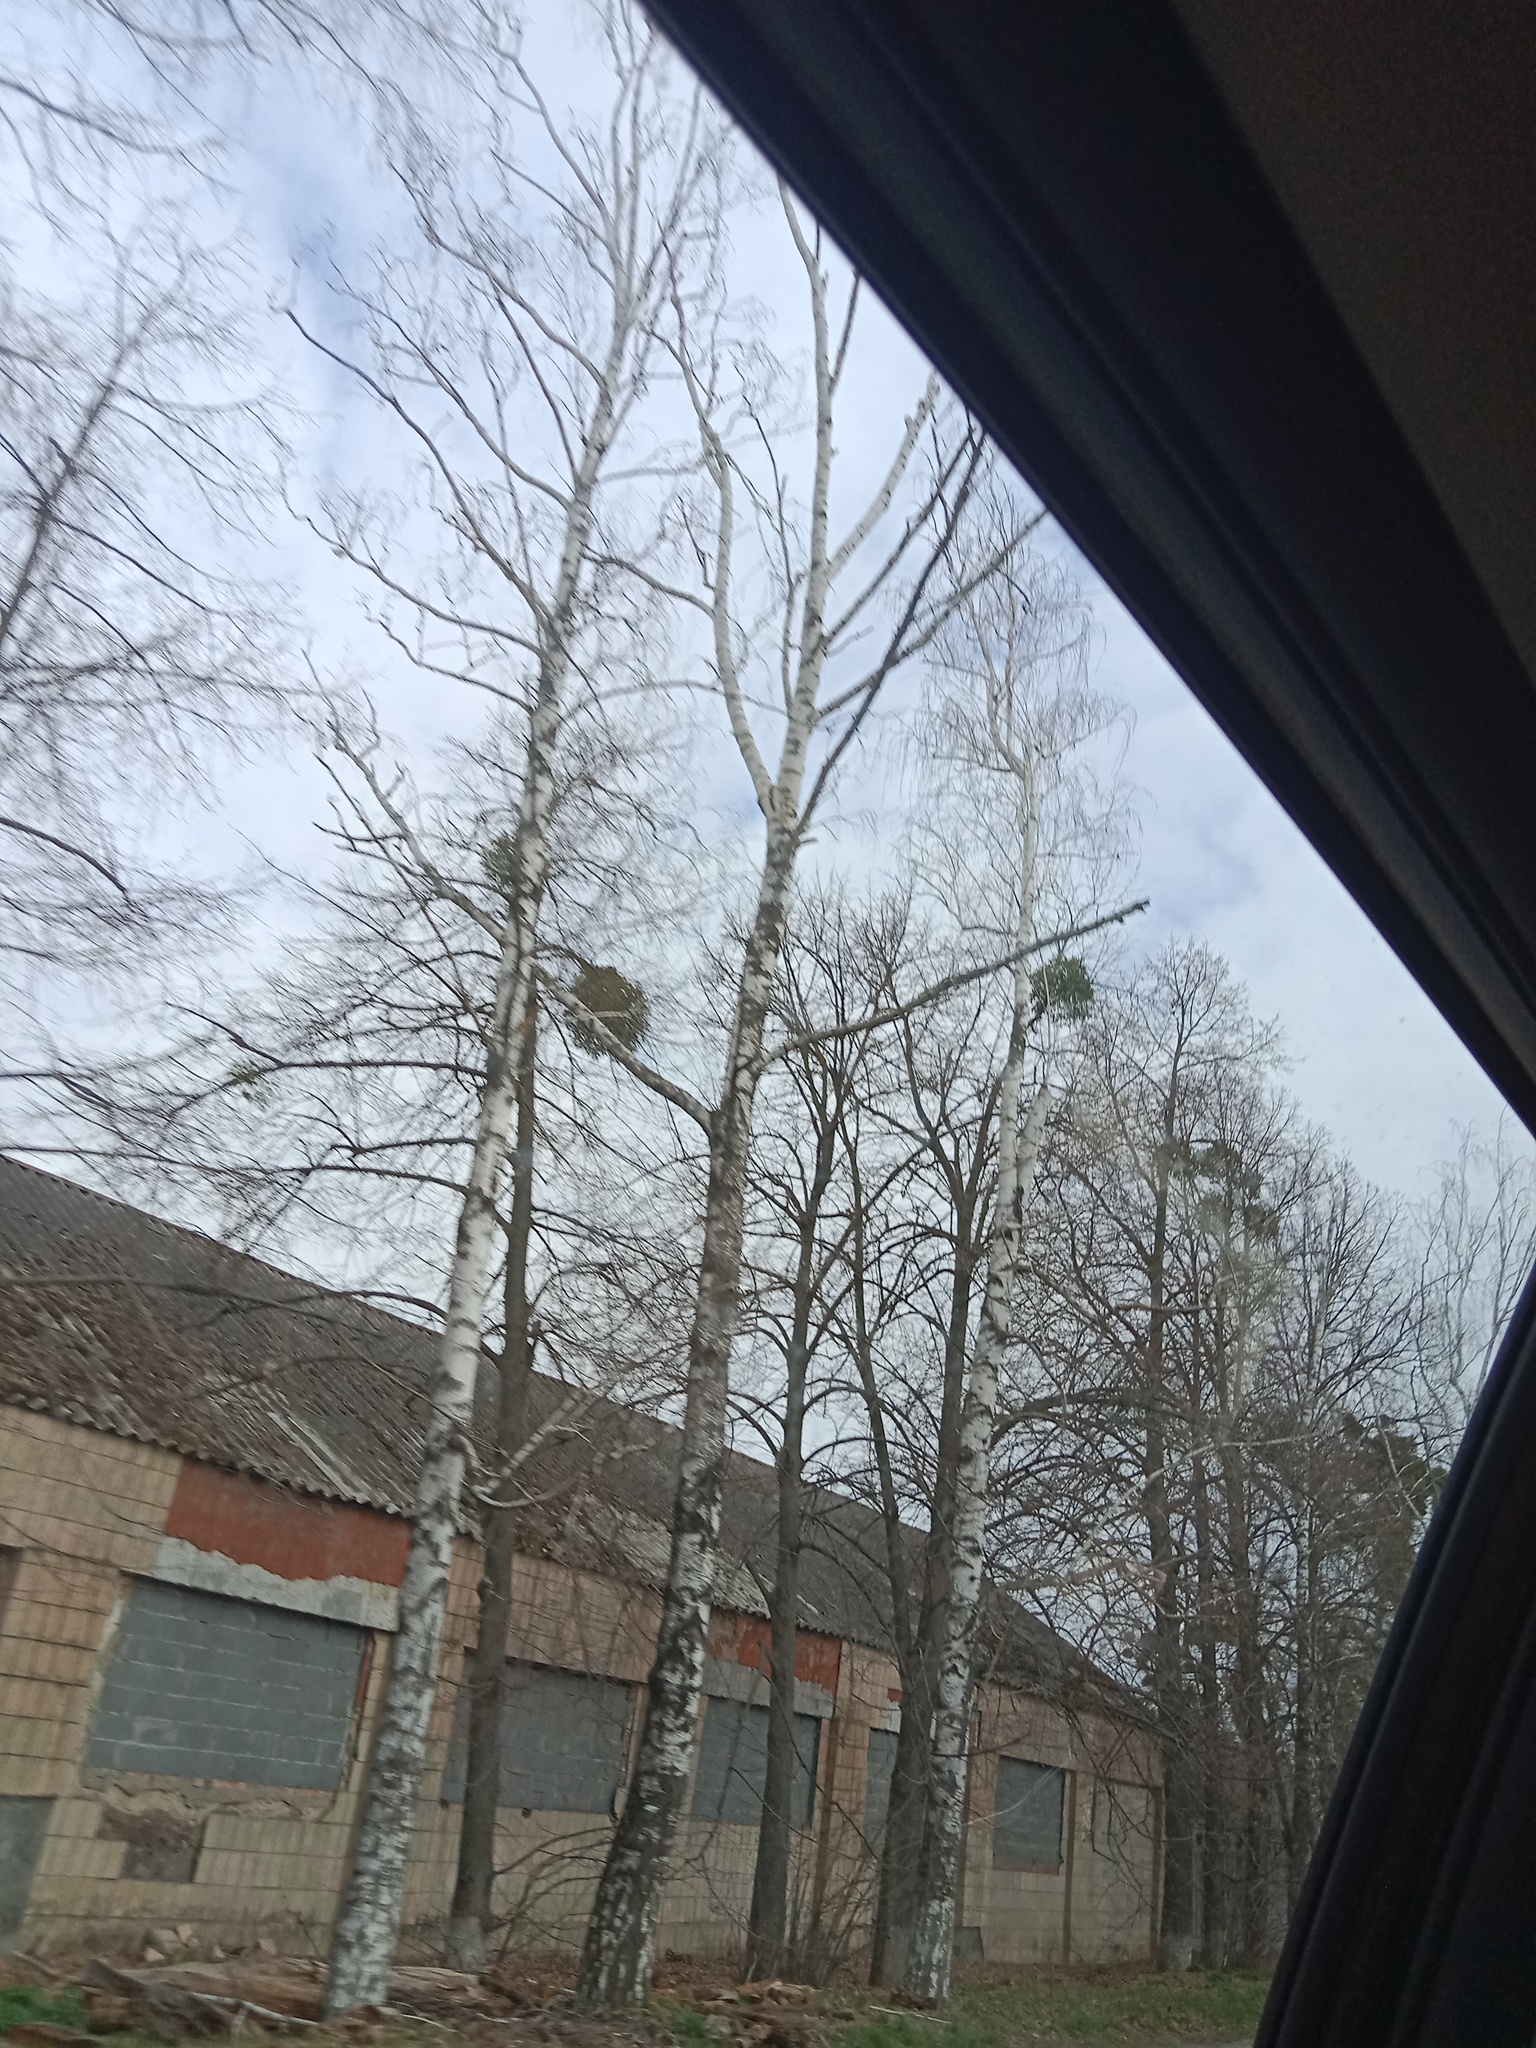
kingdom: Plantae
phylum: Tracheophyta
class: Magnoliopsida
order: Santalales
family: Viscaceae
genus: Viscum
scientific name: Viscum album
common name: Mistletoe
